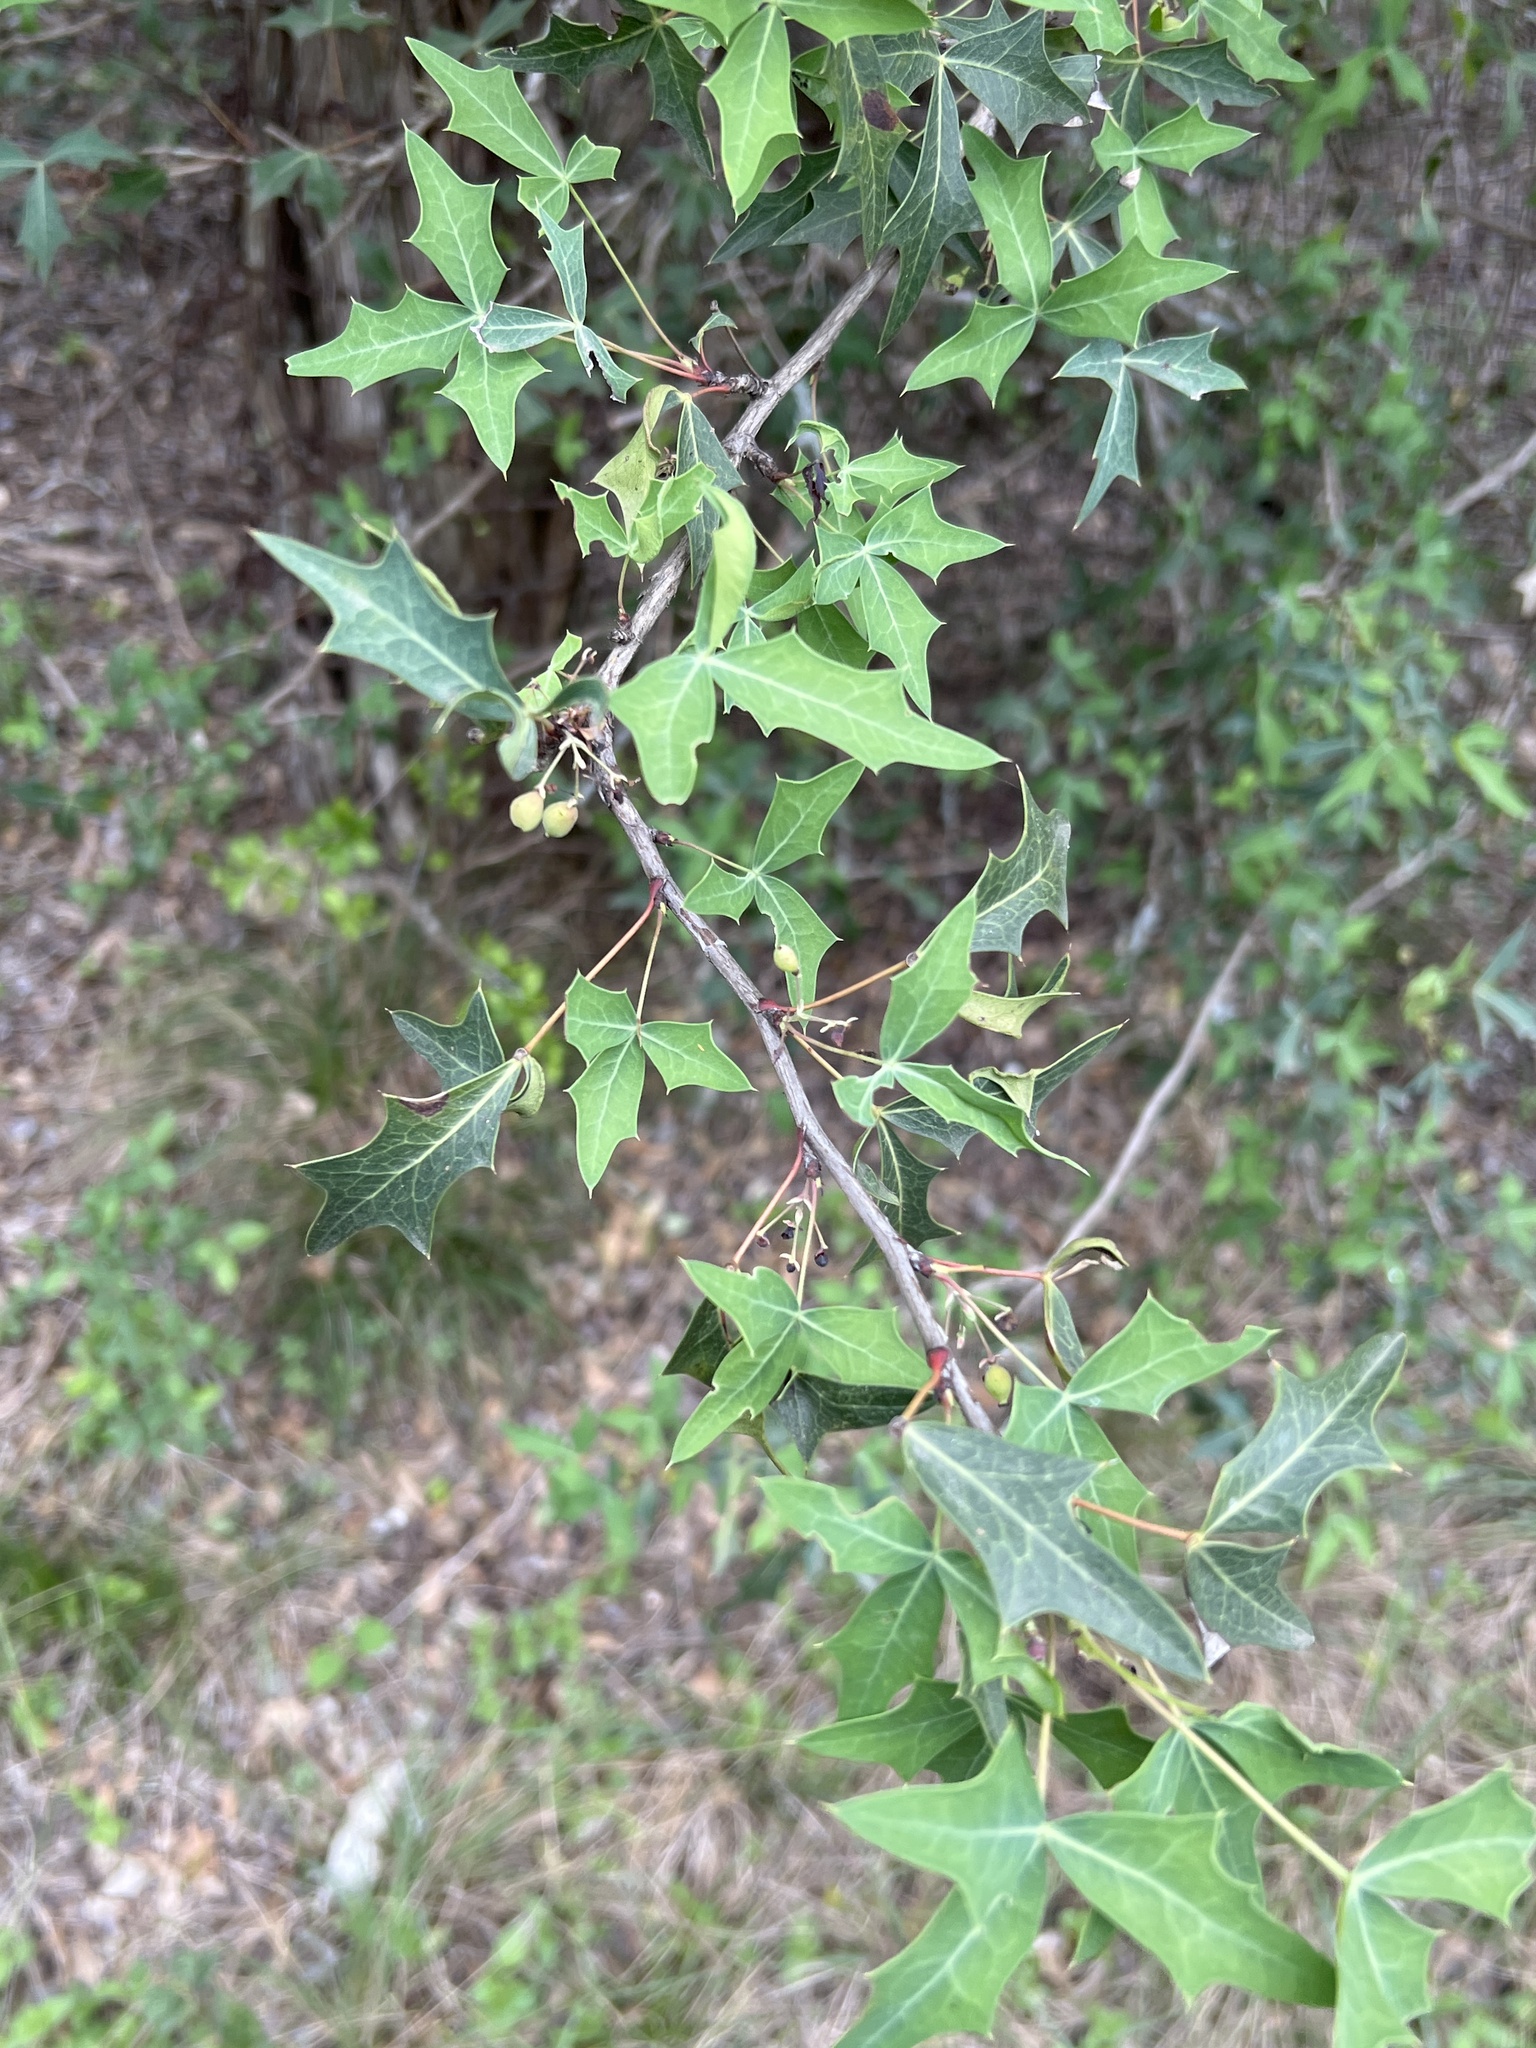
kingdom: Plantae
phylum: Tracheophyta
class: Magnoliopsida
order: Ranunculales
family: Berberidaceae
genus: Alloberberis
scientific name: Alloberberis trifoliolata
